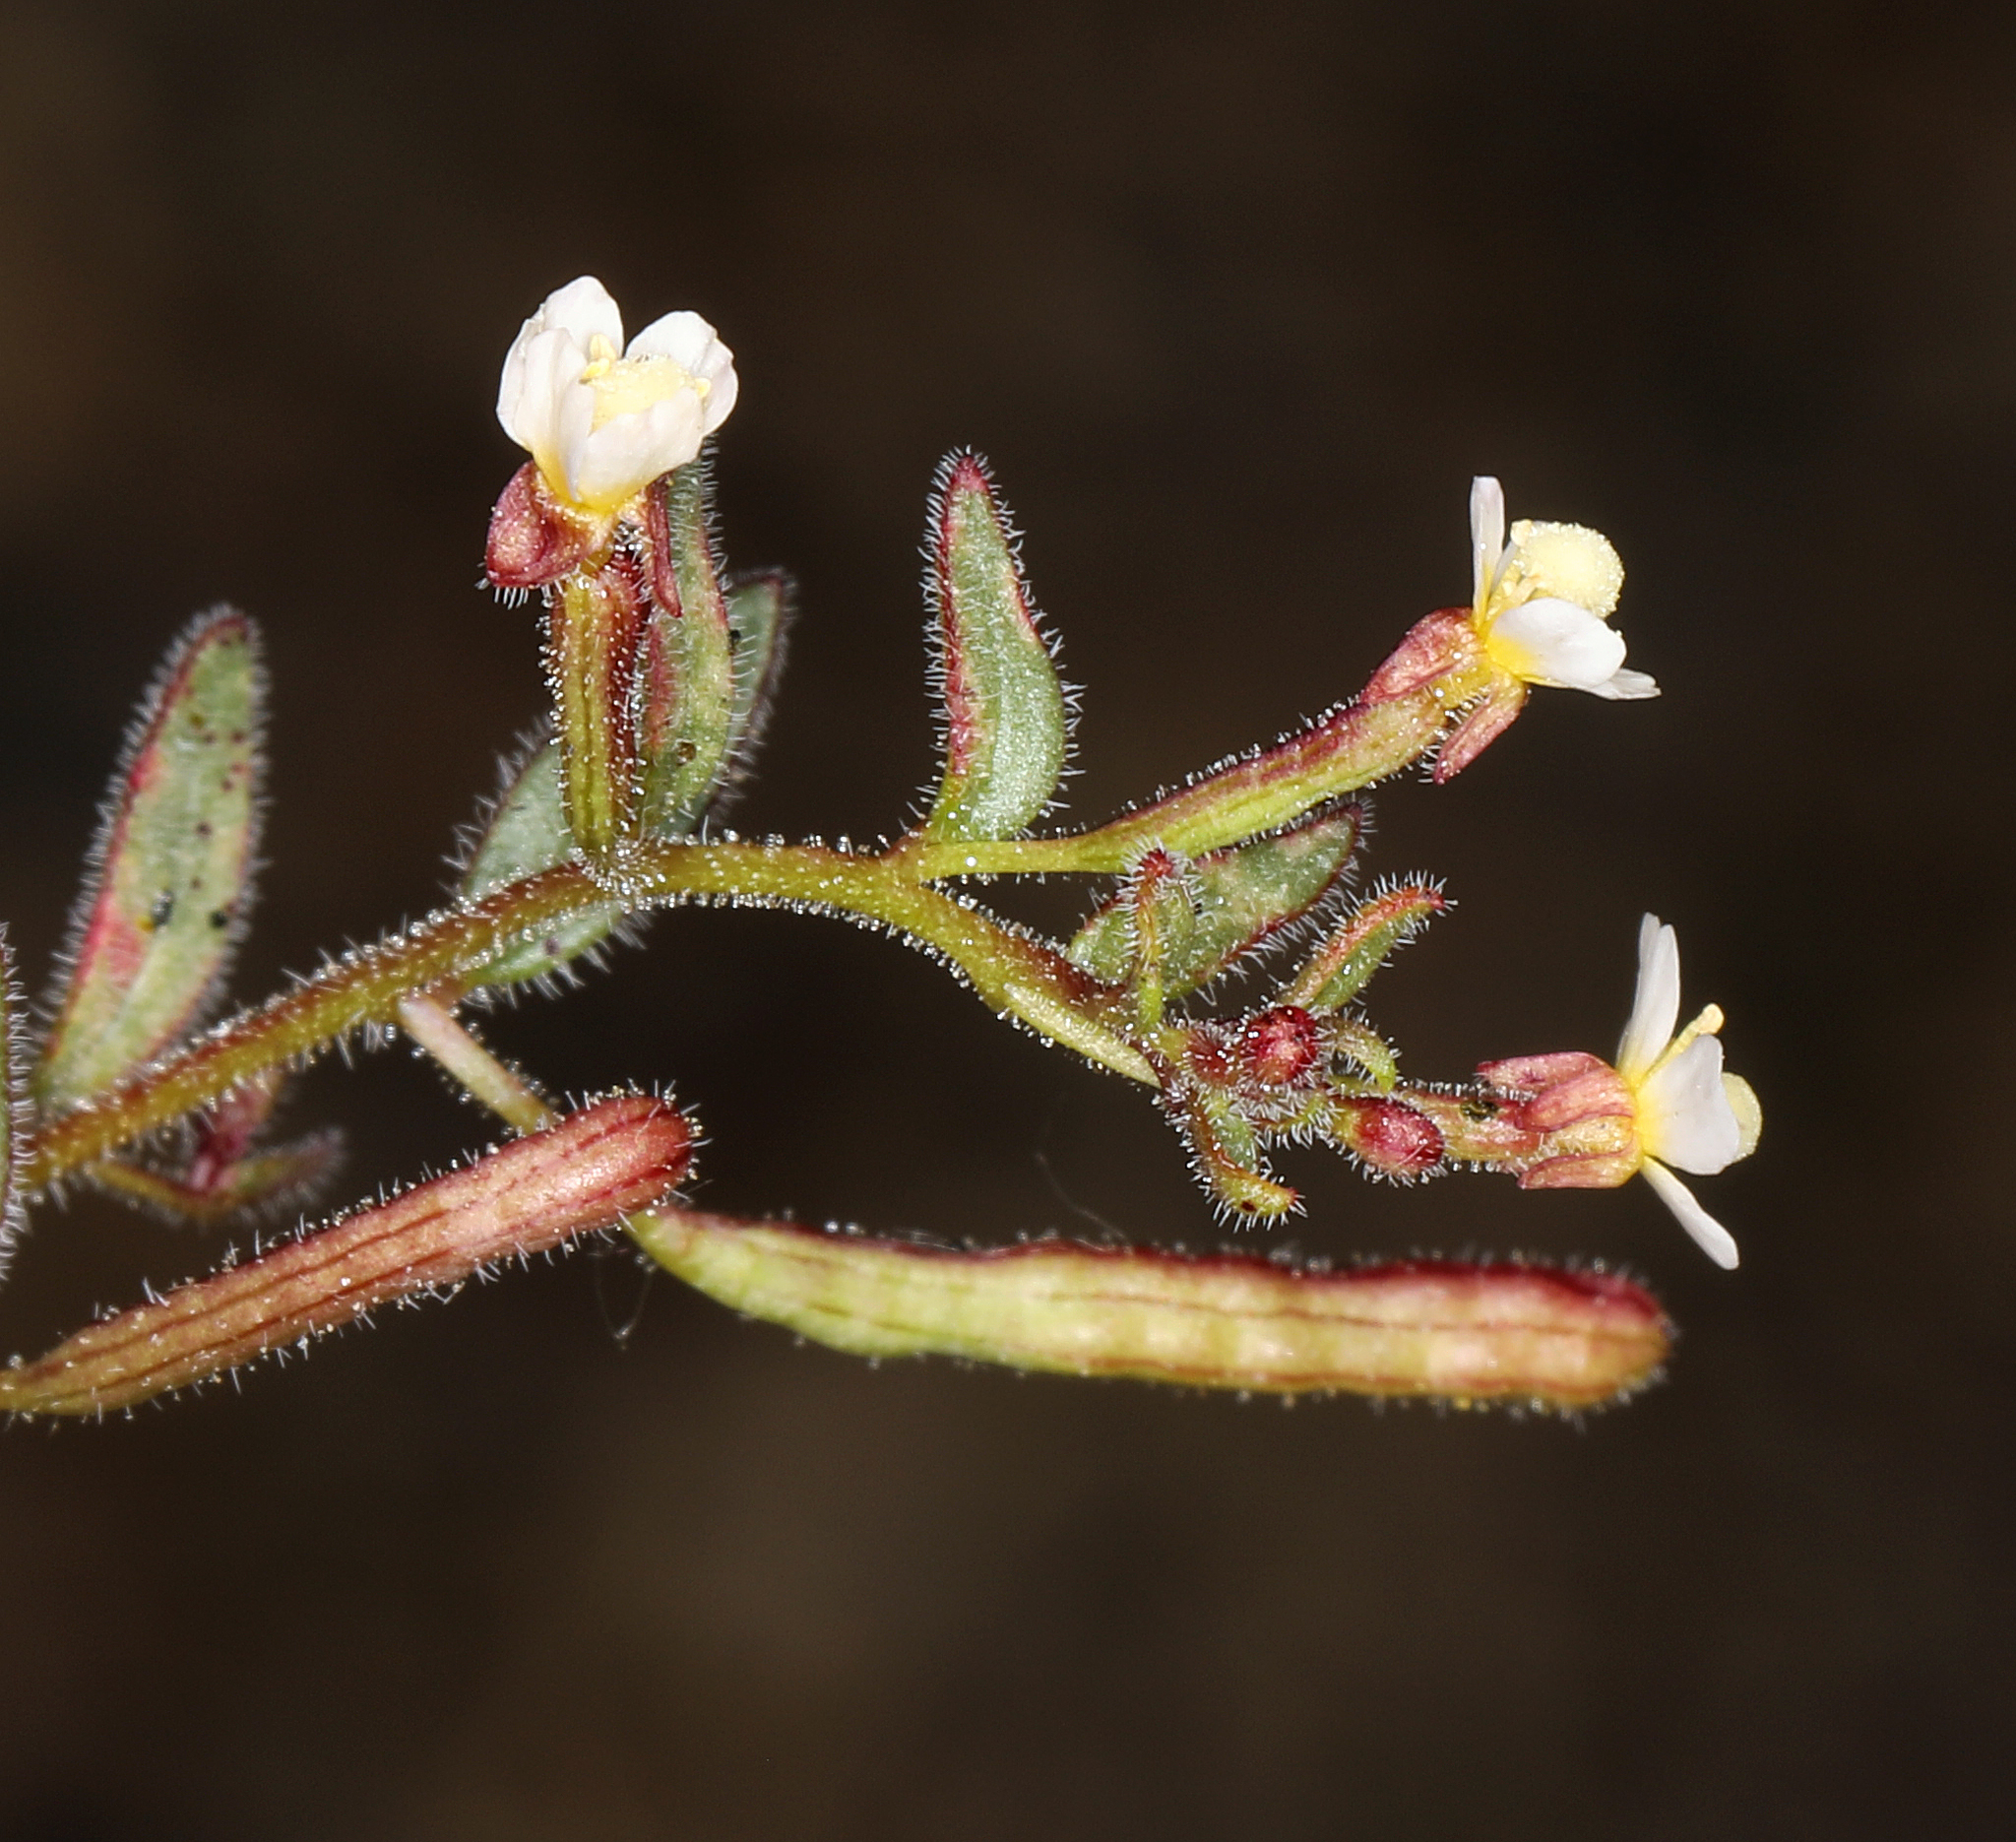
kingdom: Plantae
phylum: Tracheophyta
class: Magnoliopsida
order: Myrtales
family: Onagraceae
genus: Chylismiella
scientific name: Chylismiella pterosperma
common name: Wingfruit suncup
